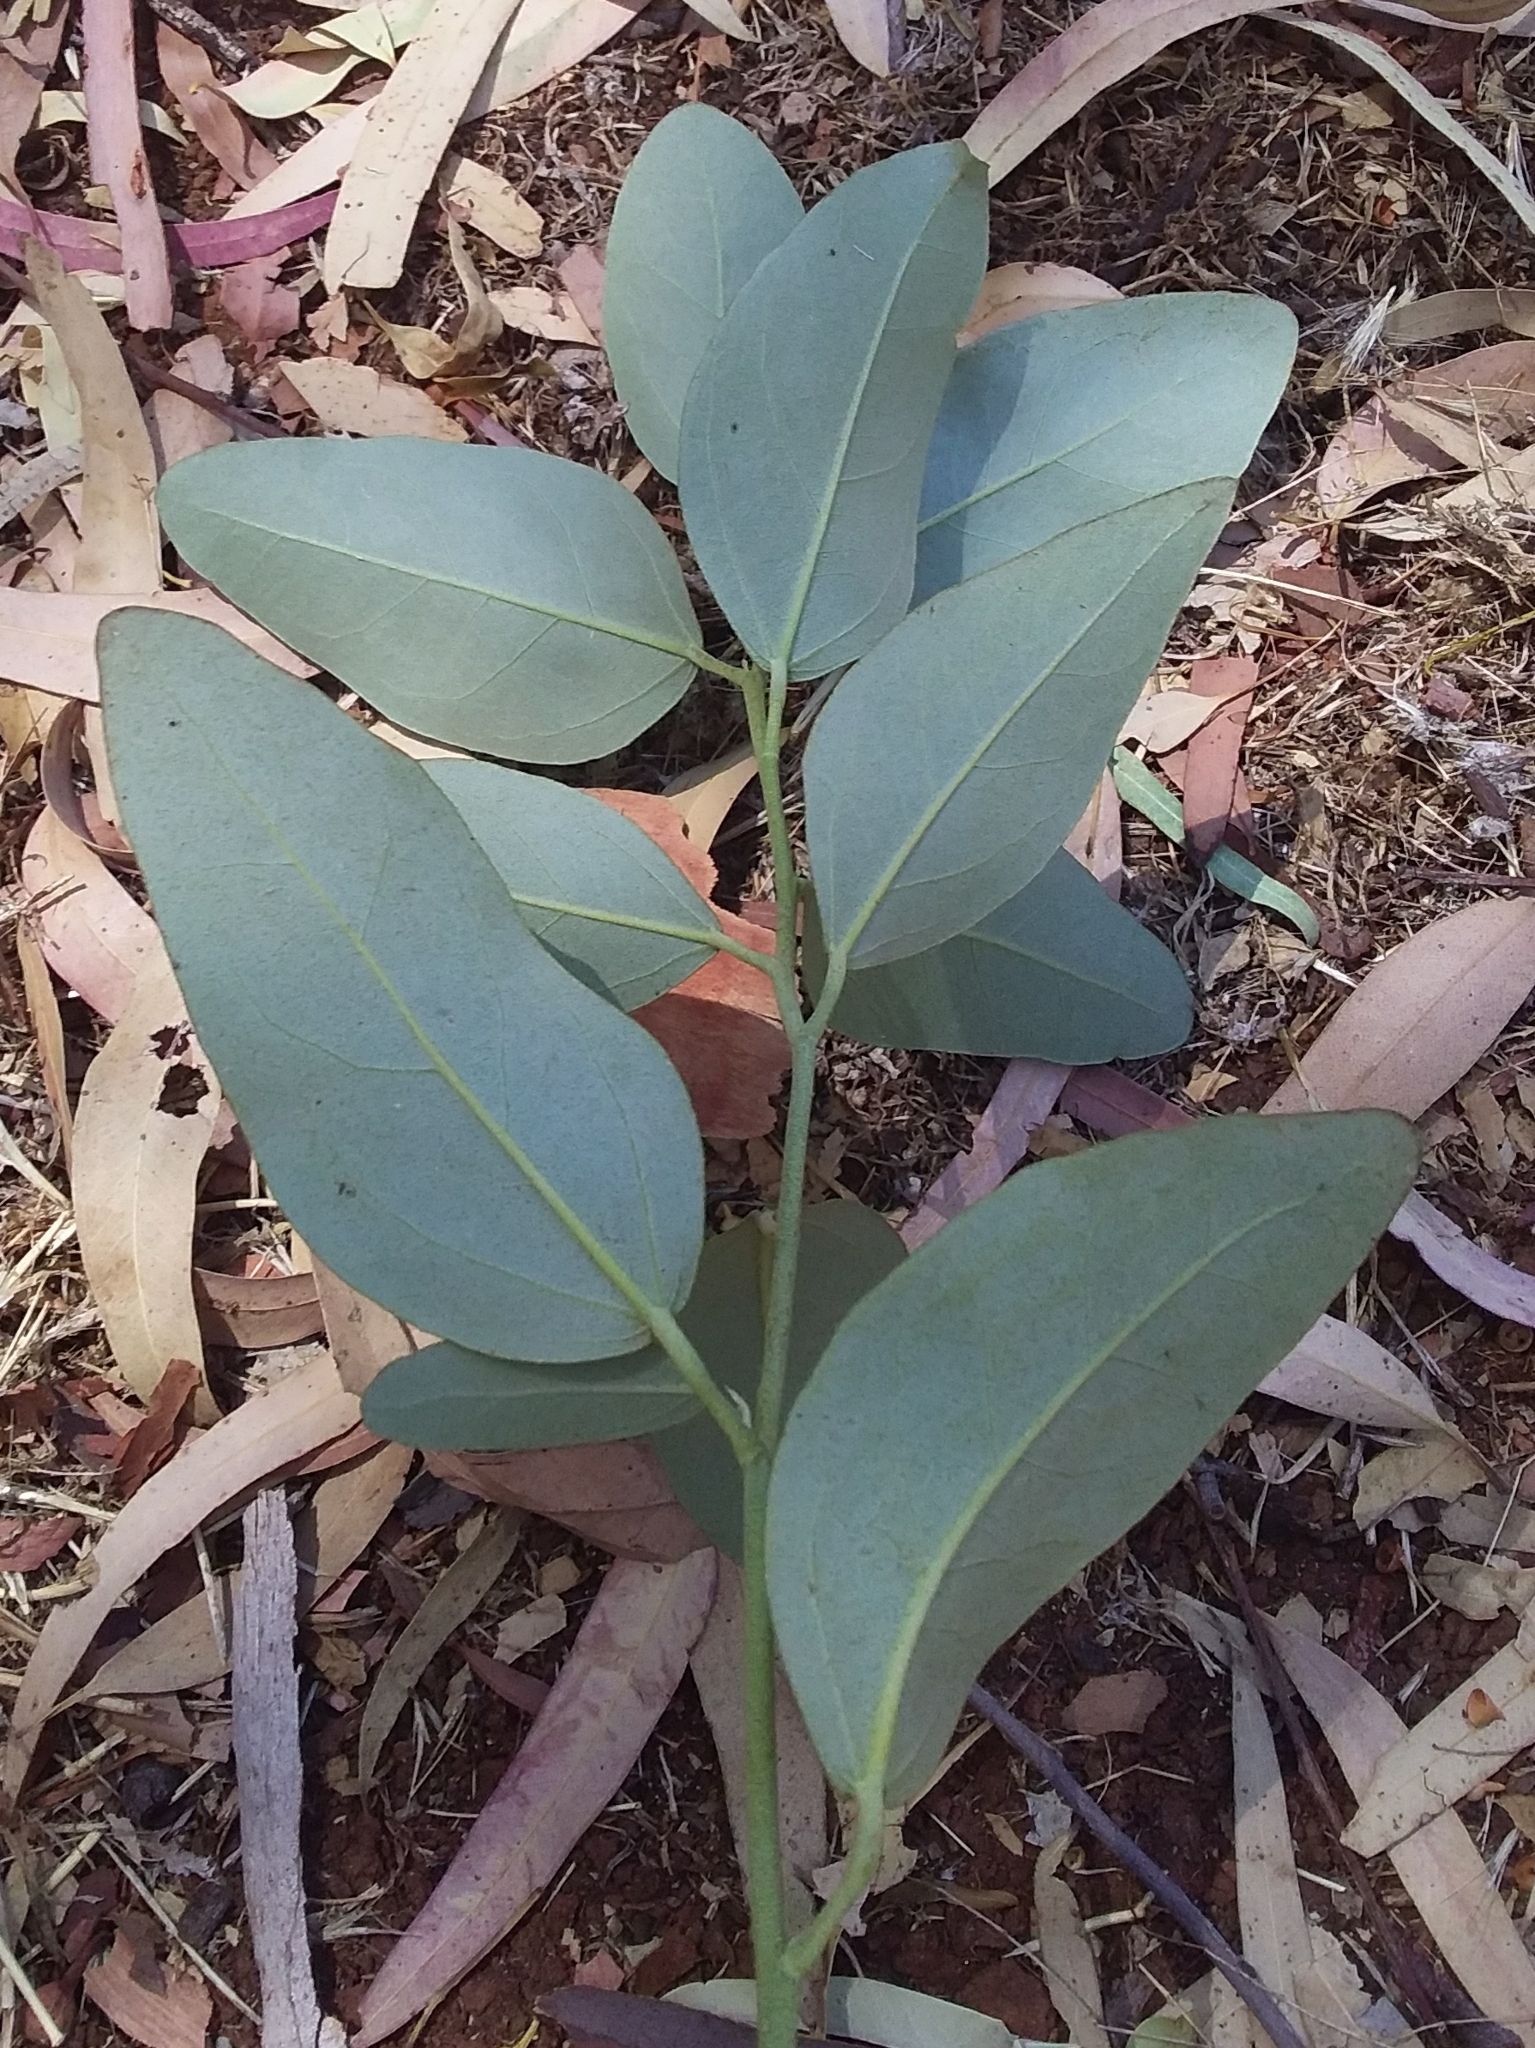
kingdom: Plantae
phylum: Tracheophyta
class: Magnoliopsida
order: Malvales
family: Malvaceae
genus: Lagunaria
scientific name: Lagunaria patersonia
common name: Cow itch tree
